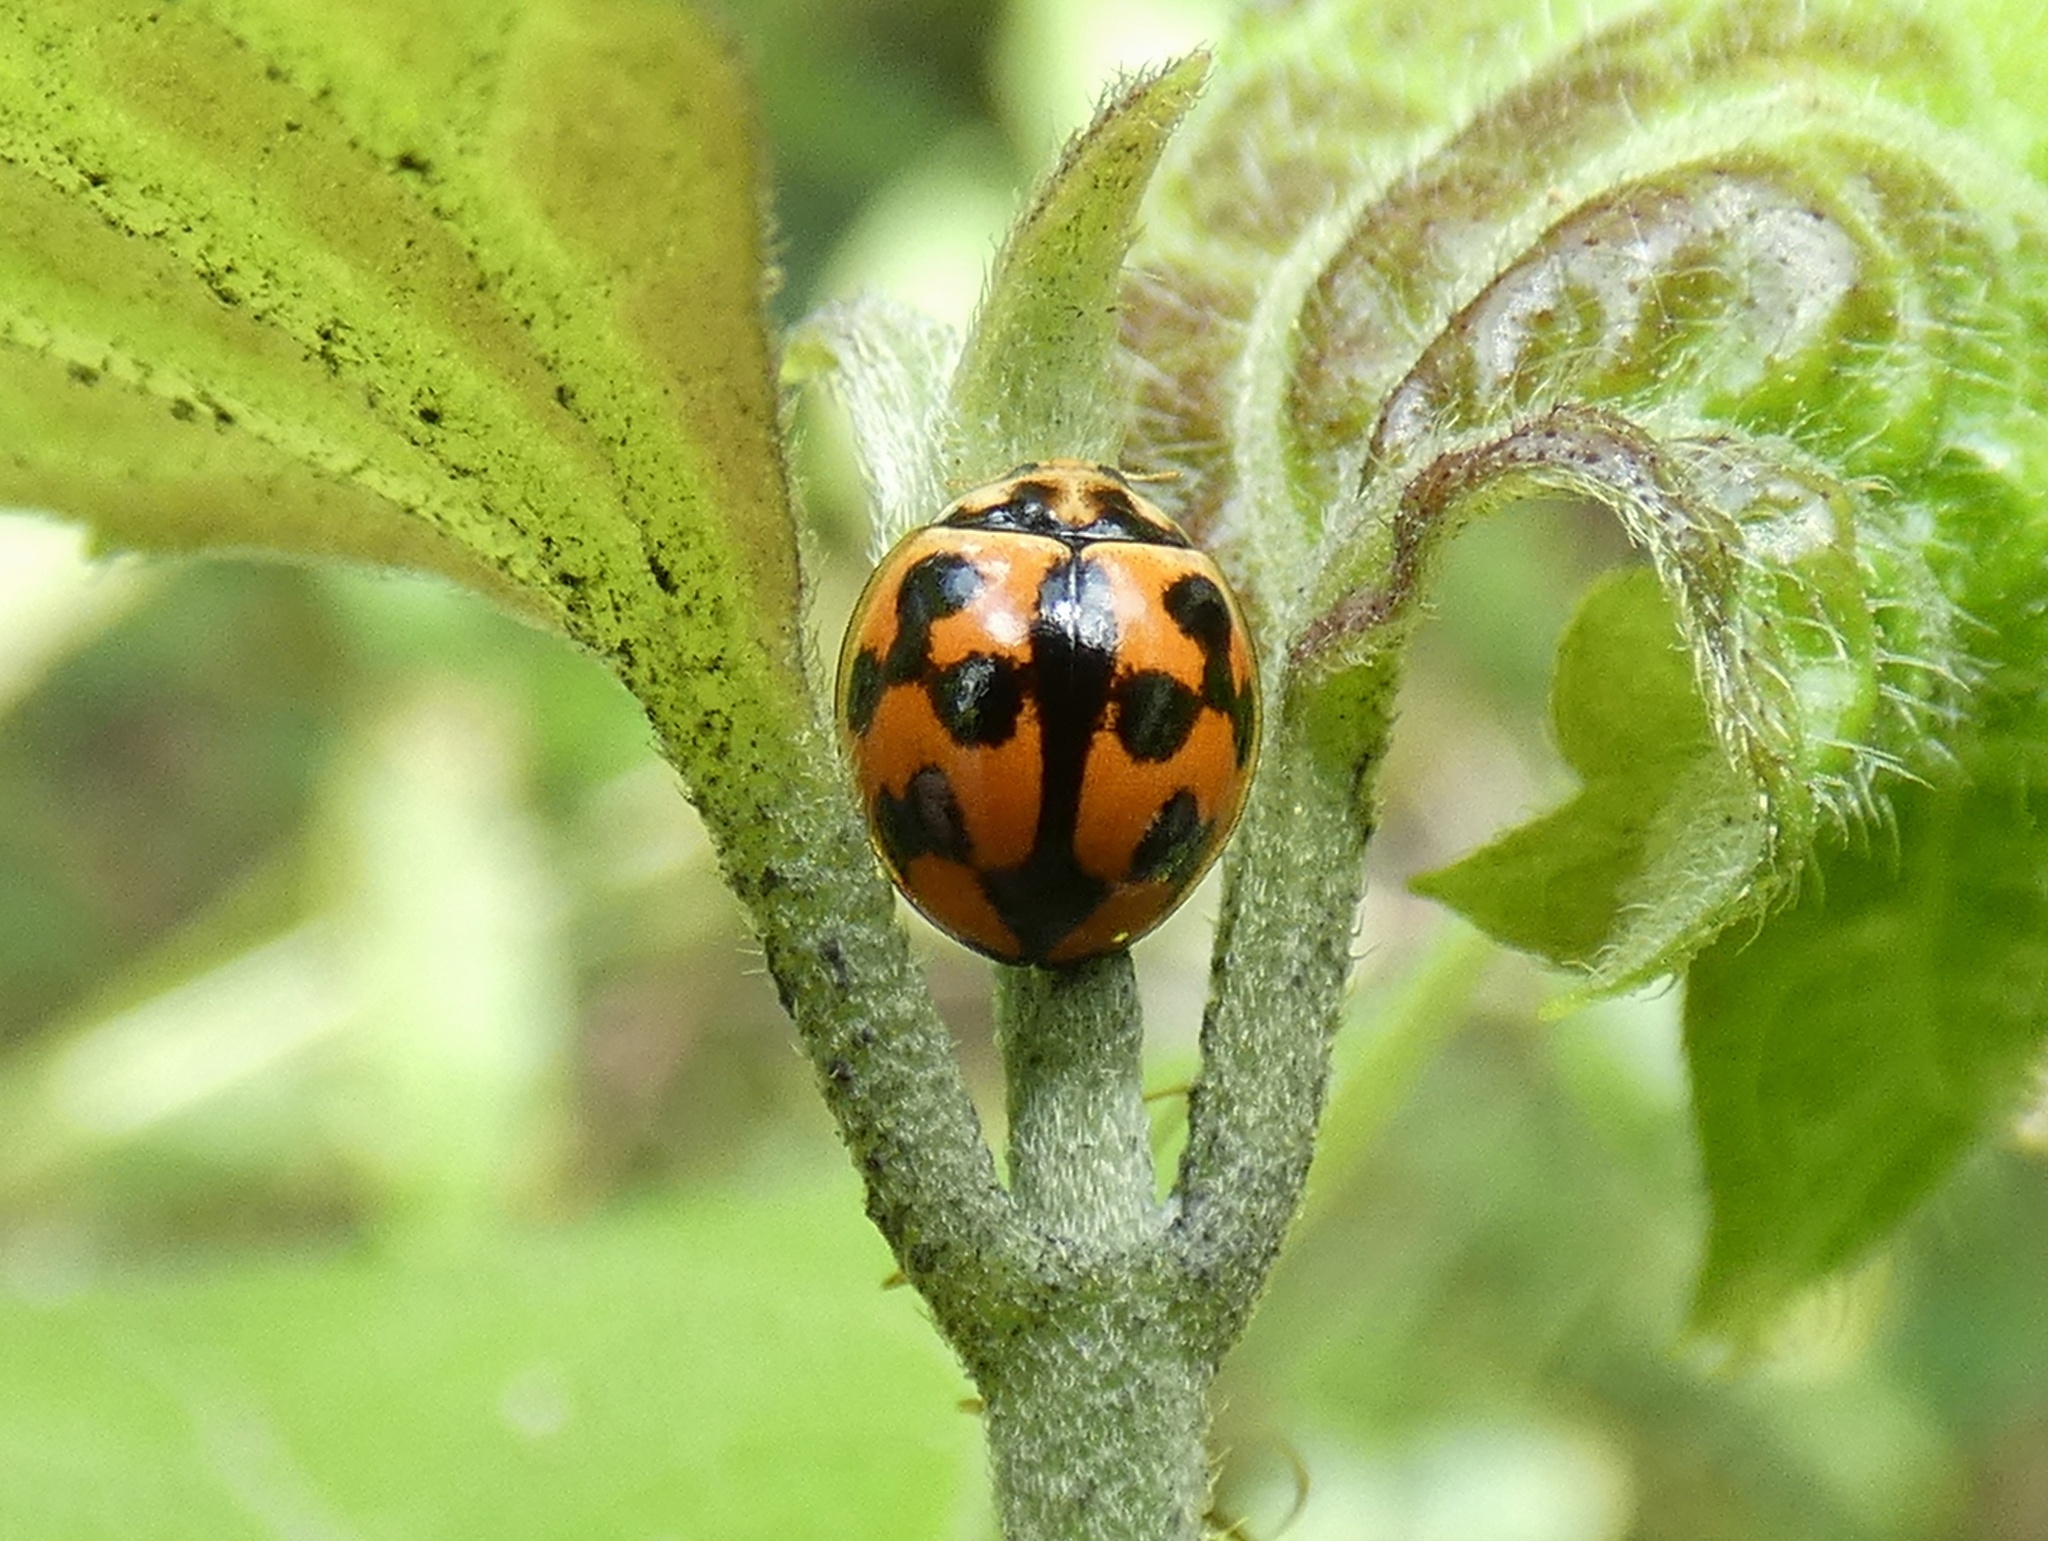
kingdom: Animalia
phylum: Arthropoda
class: Insecta
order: Coleoptera
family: Coccinellidae
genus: Coelophora
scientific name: Coelophora inaequalis
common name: Common australian lady beetle
